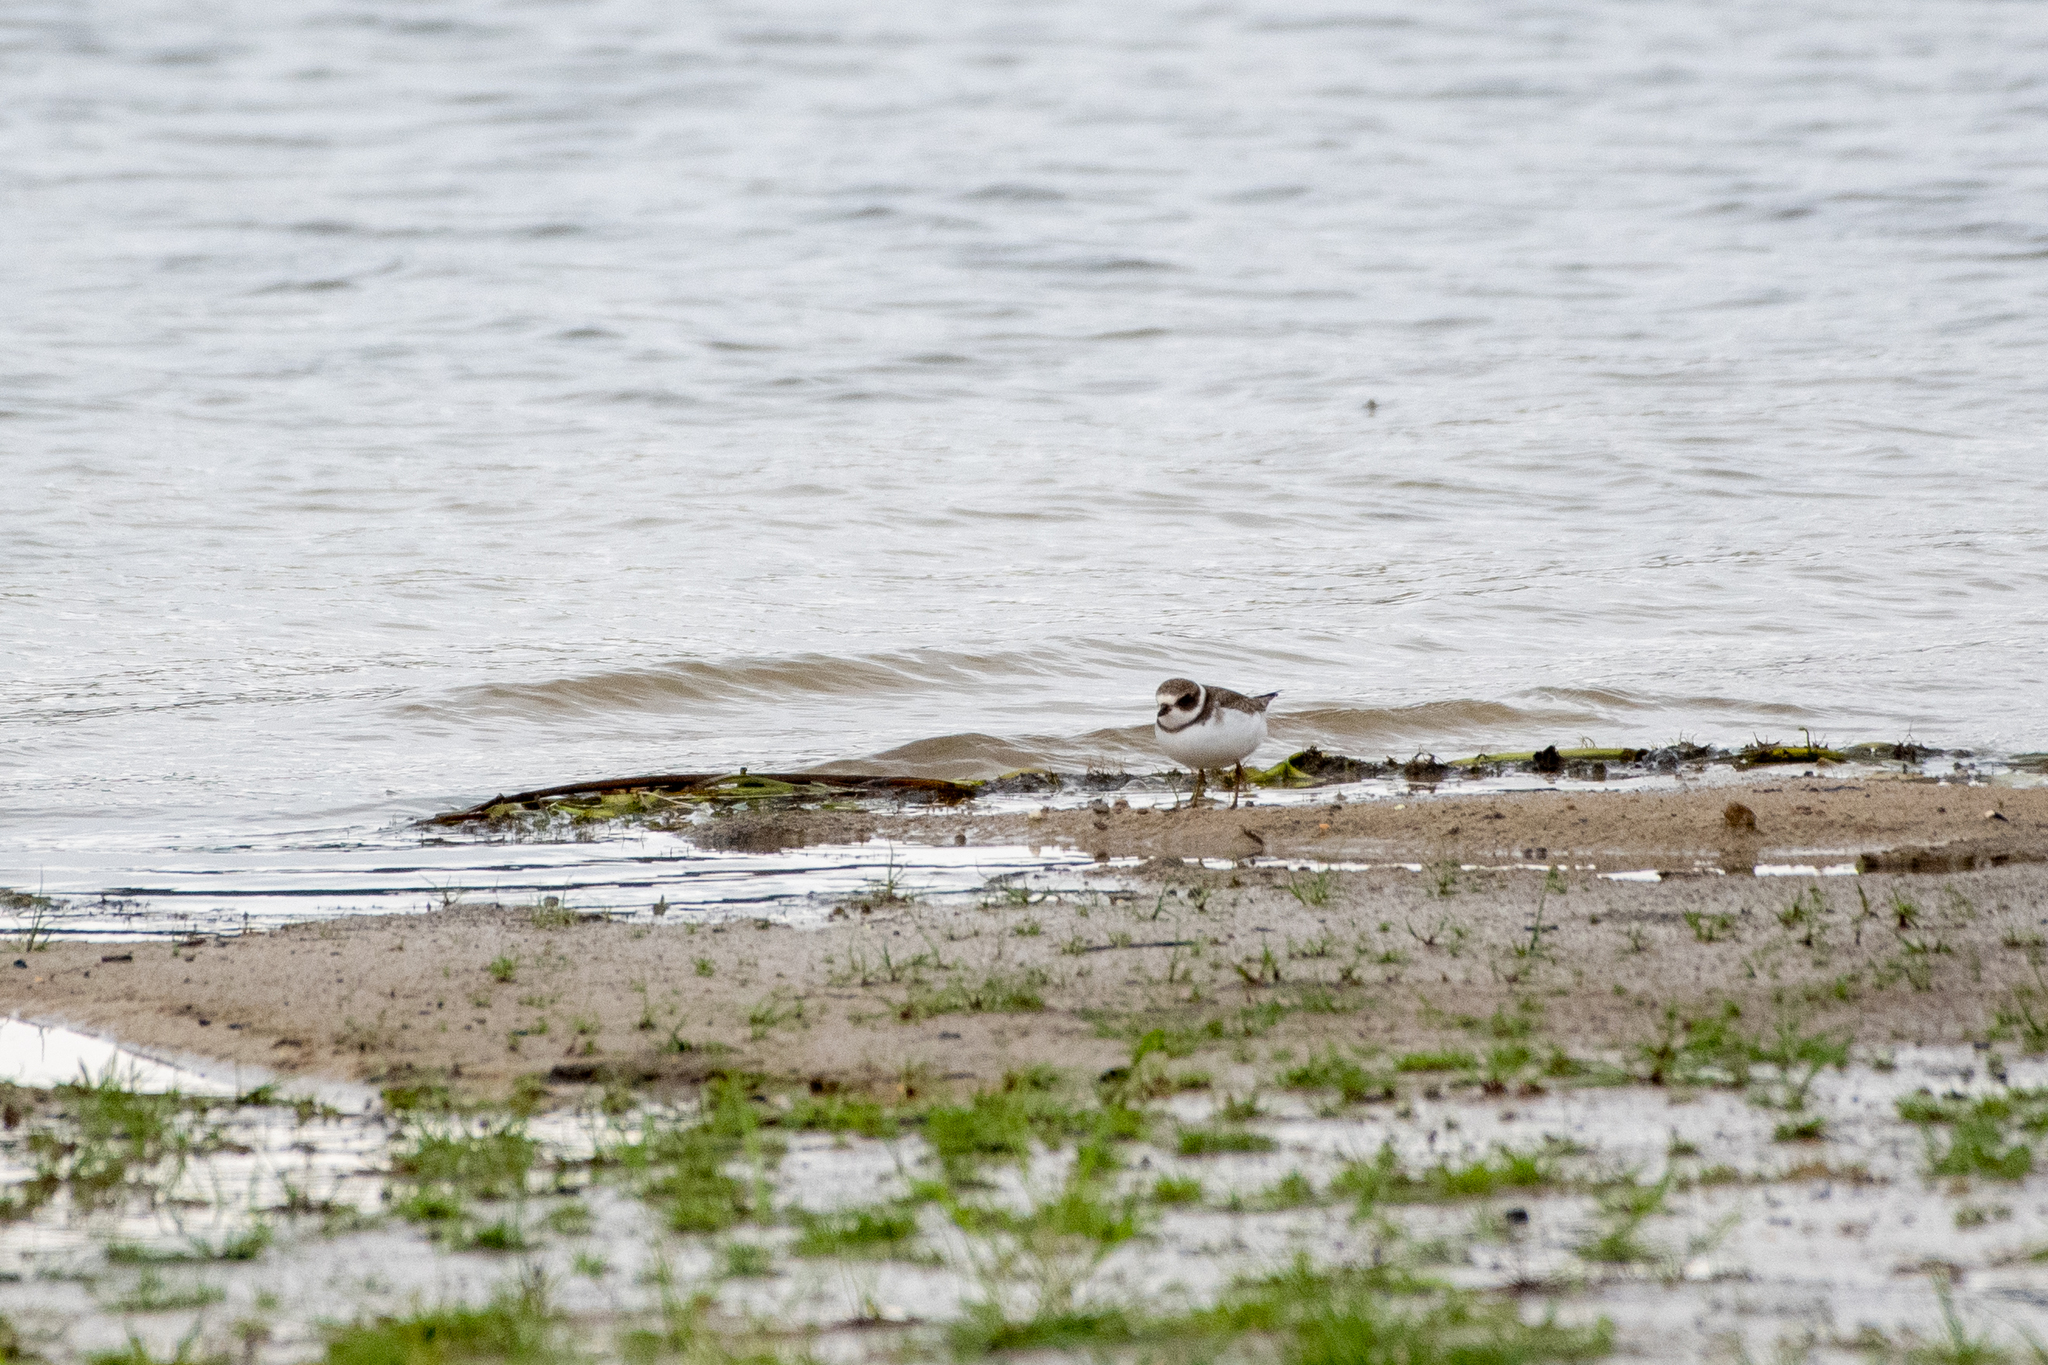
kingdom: Animalia
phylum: Chordata
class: Aves
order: Charadriiformes
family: Charadriidae
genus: Charadrius
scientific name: Charadrius semipalmatus
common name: Semipalmated plover
